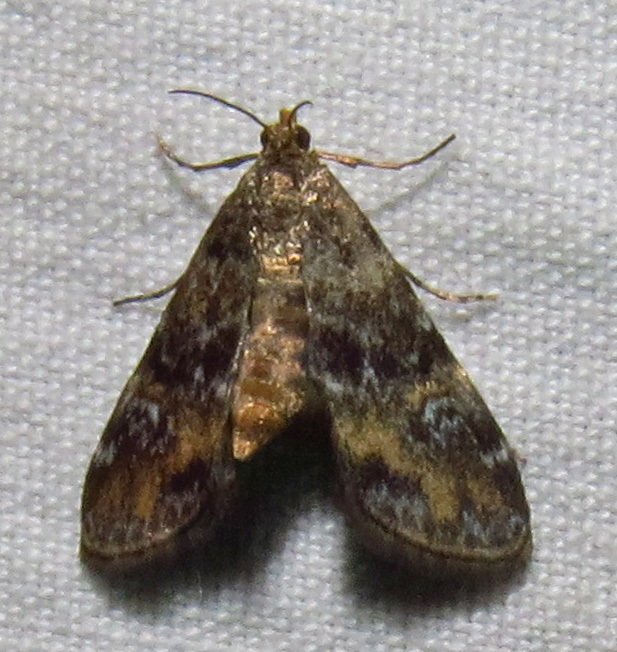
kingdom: Animalia
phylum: Arthropoda
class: Insecta
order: Lepidoptera
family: Crambidae
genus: Elophila
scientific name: Elophila obliteralis
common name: Waterlily leafcutter moth
